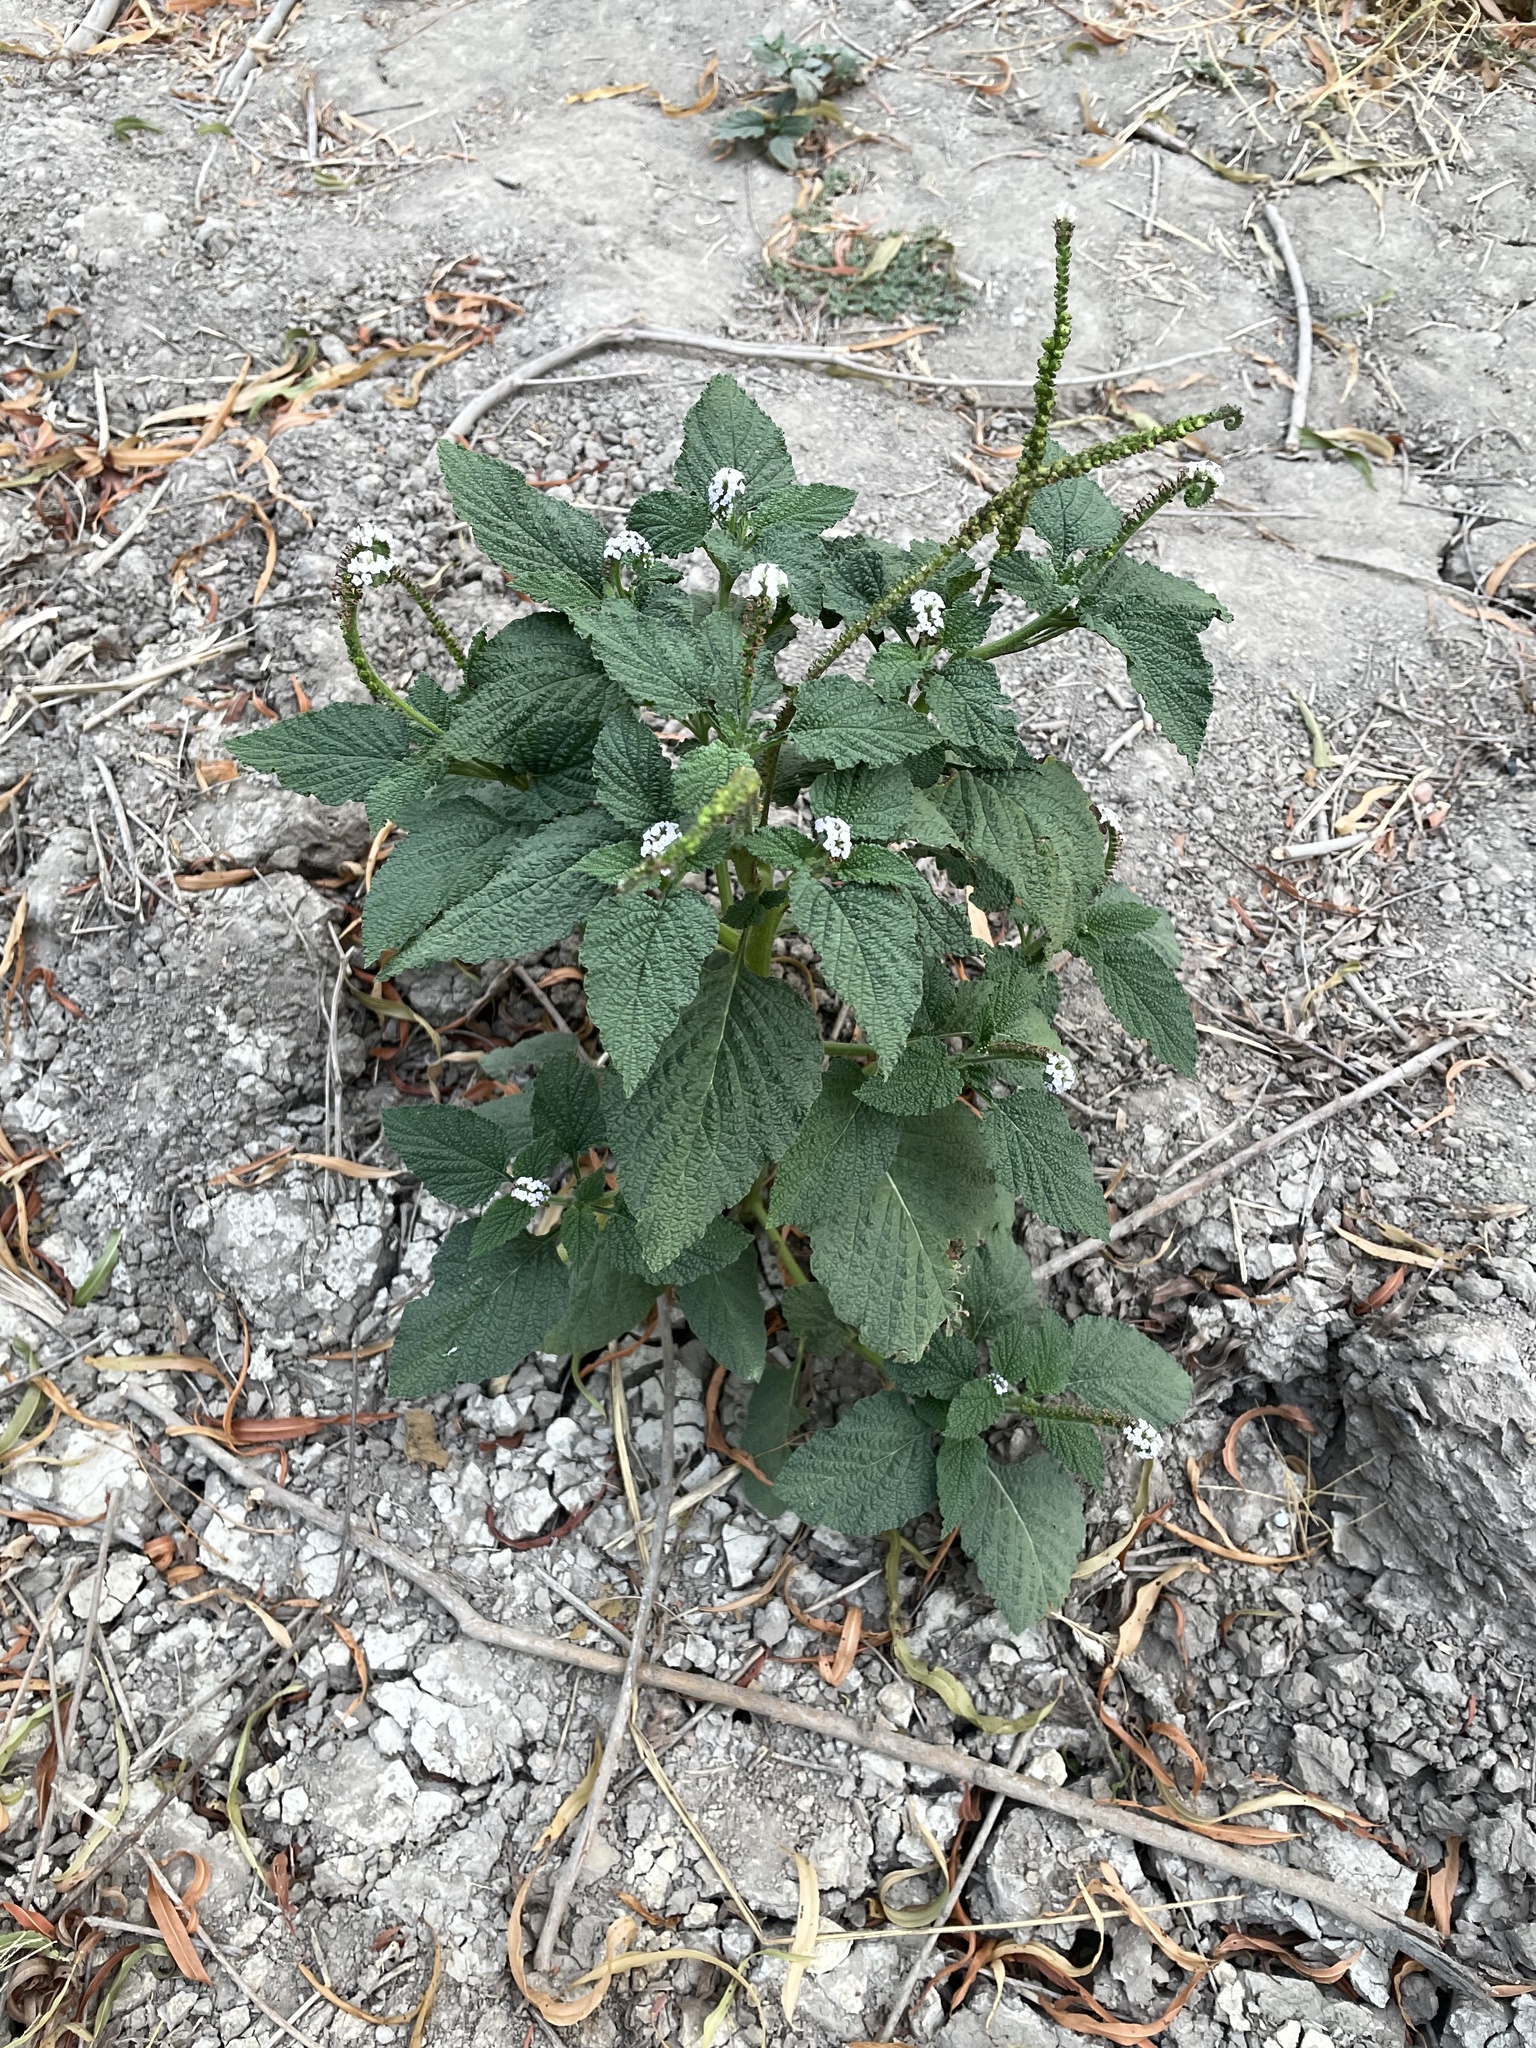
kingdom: Plantae
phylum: Tracheophyta
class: Magnoliopsida
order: Boraginales
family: Heliotropiaceae
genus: Heliotropium
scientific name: Heliotropium indicum
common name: Indian heliotrope
